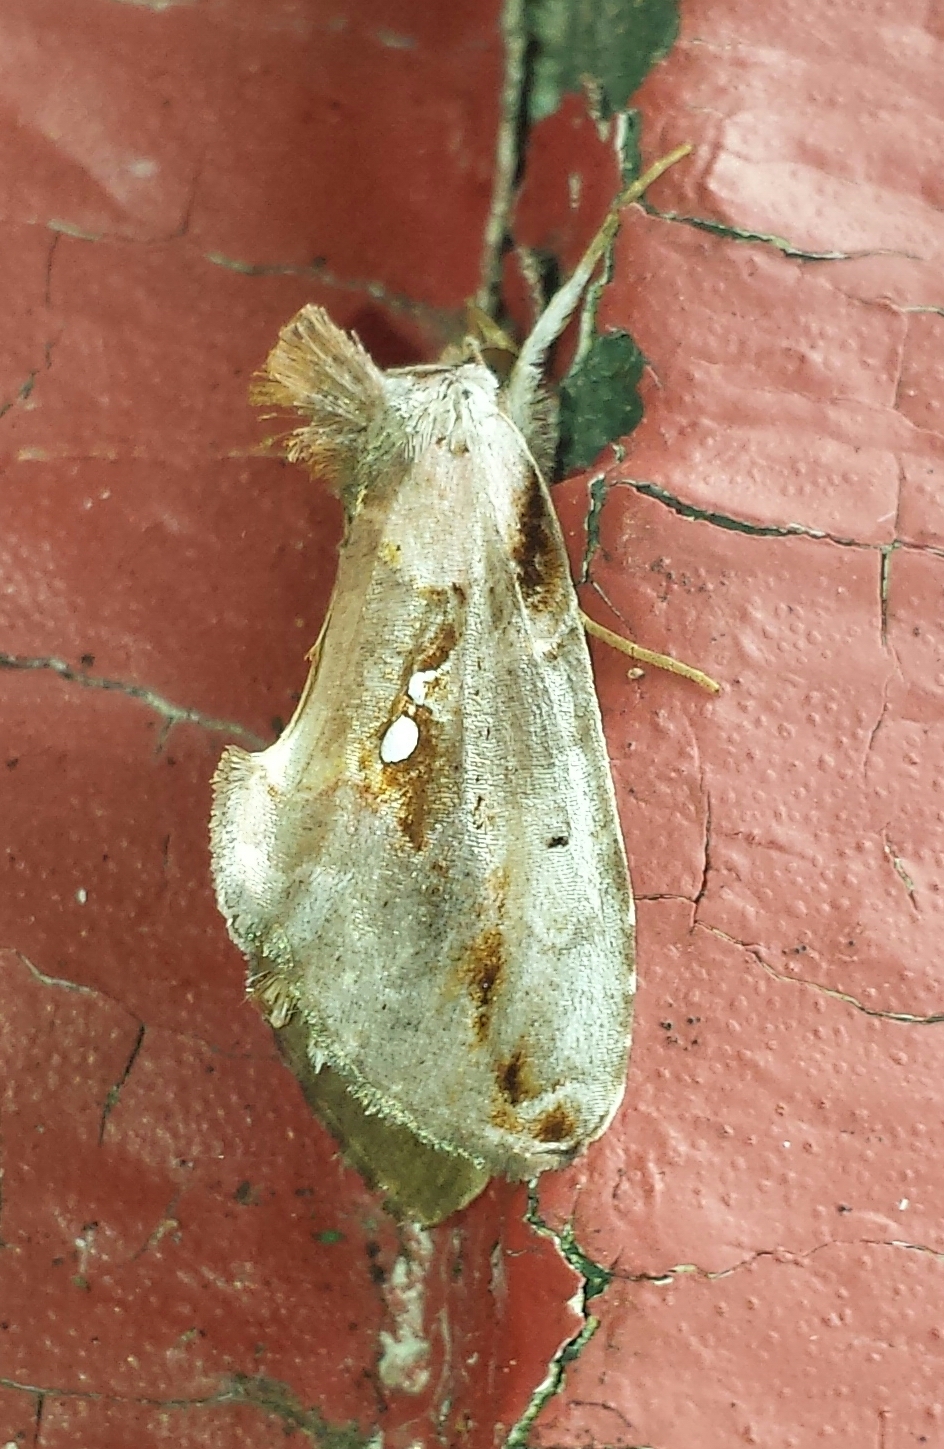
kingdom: Animalia
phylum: Arthropoda
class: Insecta
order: Lepidoptera
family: Noctuidae
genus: Eosphoropteryx
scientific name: Eosphoropteryx thyatyroides
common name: Pinkpatched looper moth
